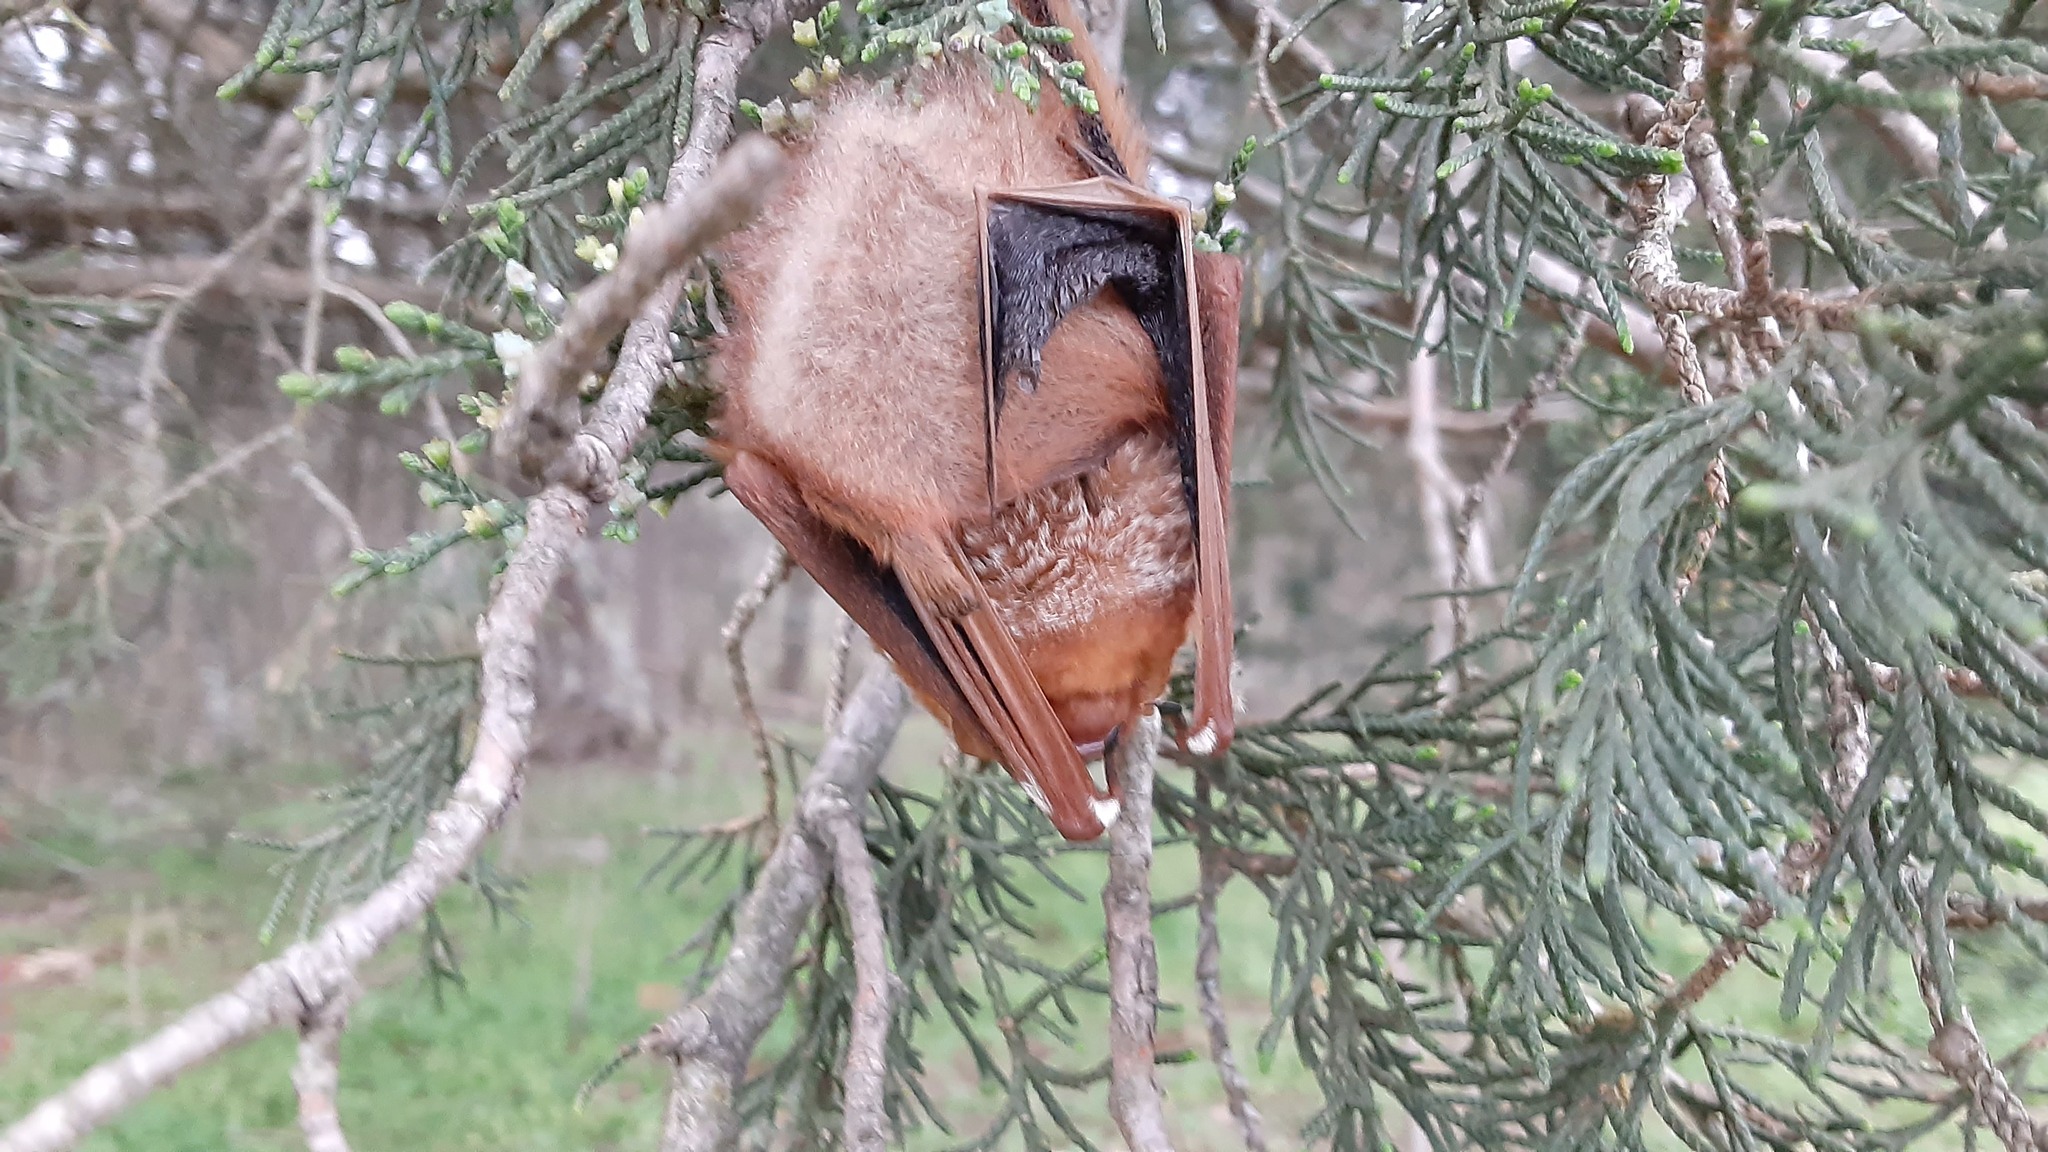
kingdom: Animalia
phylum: Chordata
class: Mammalia
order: Chiroptera
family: Vespertilionidae
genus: Lasiurus
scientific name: Lasiurus borealis
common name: Eastern red bat
